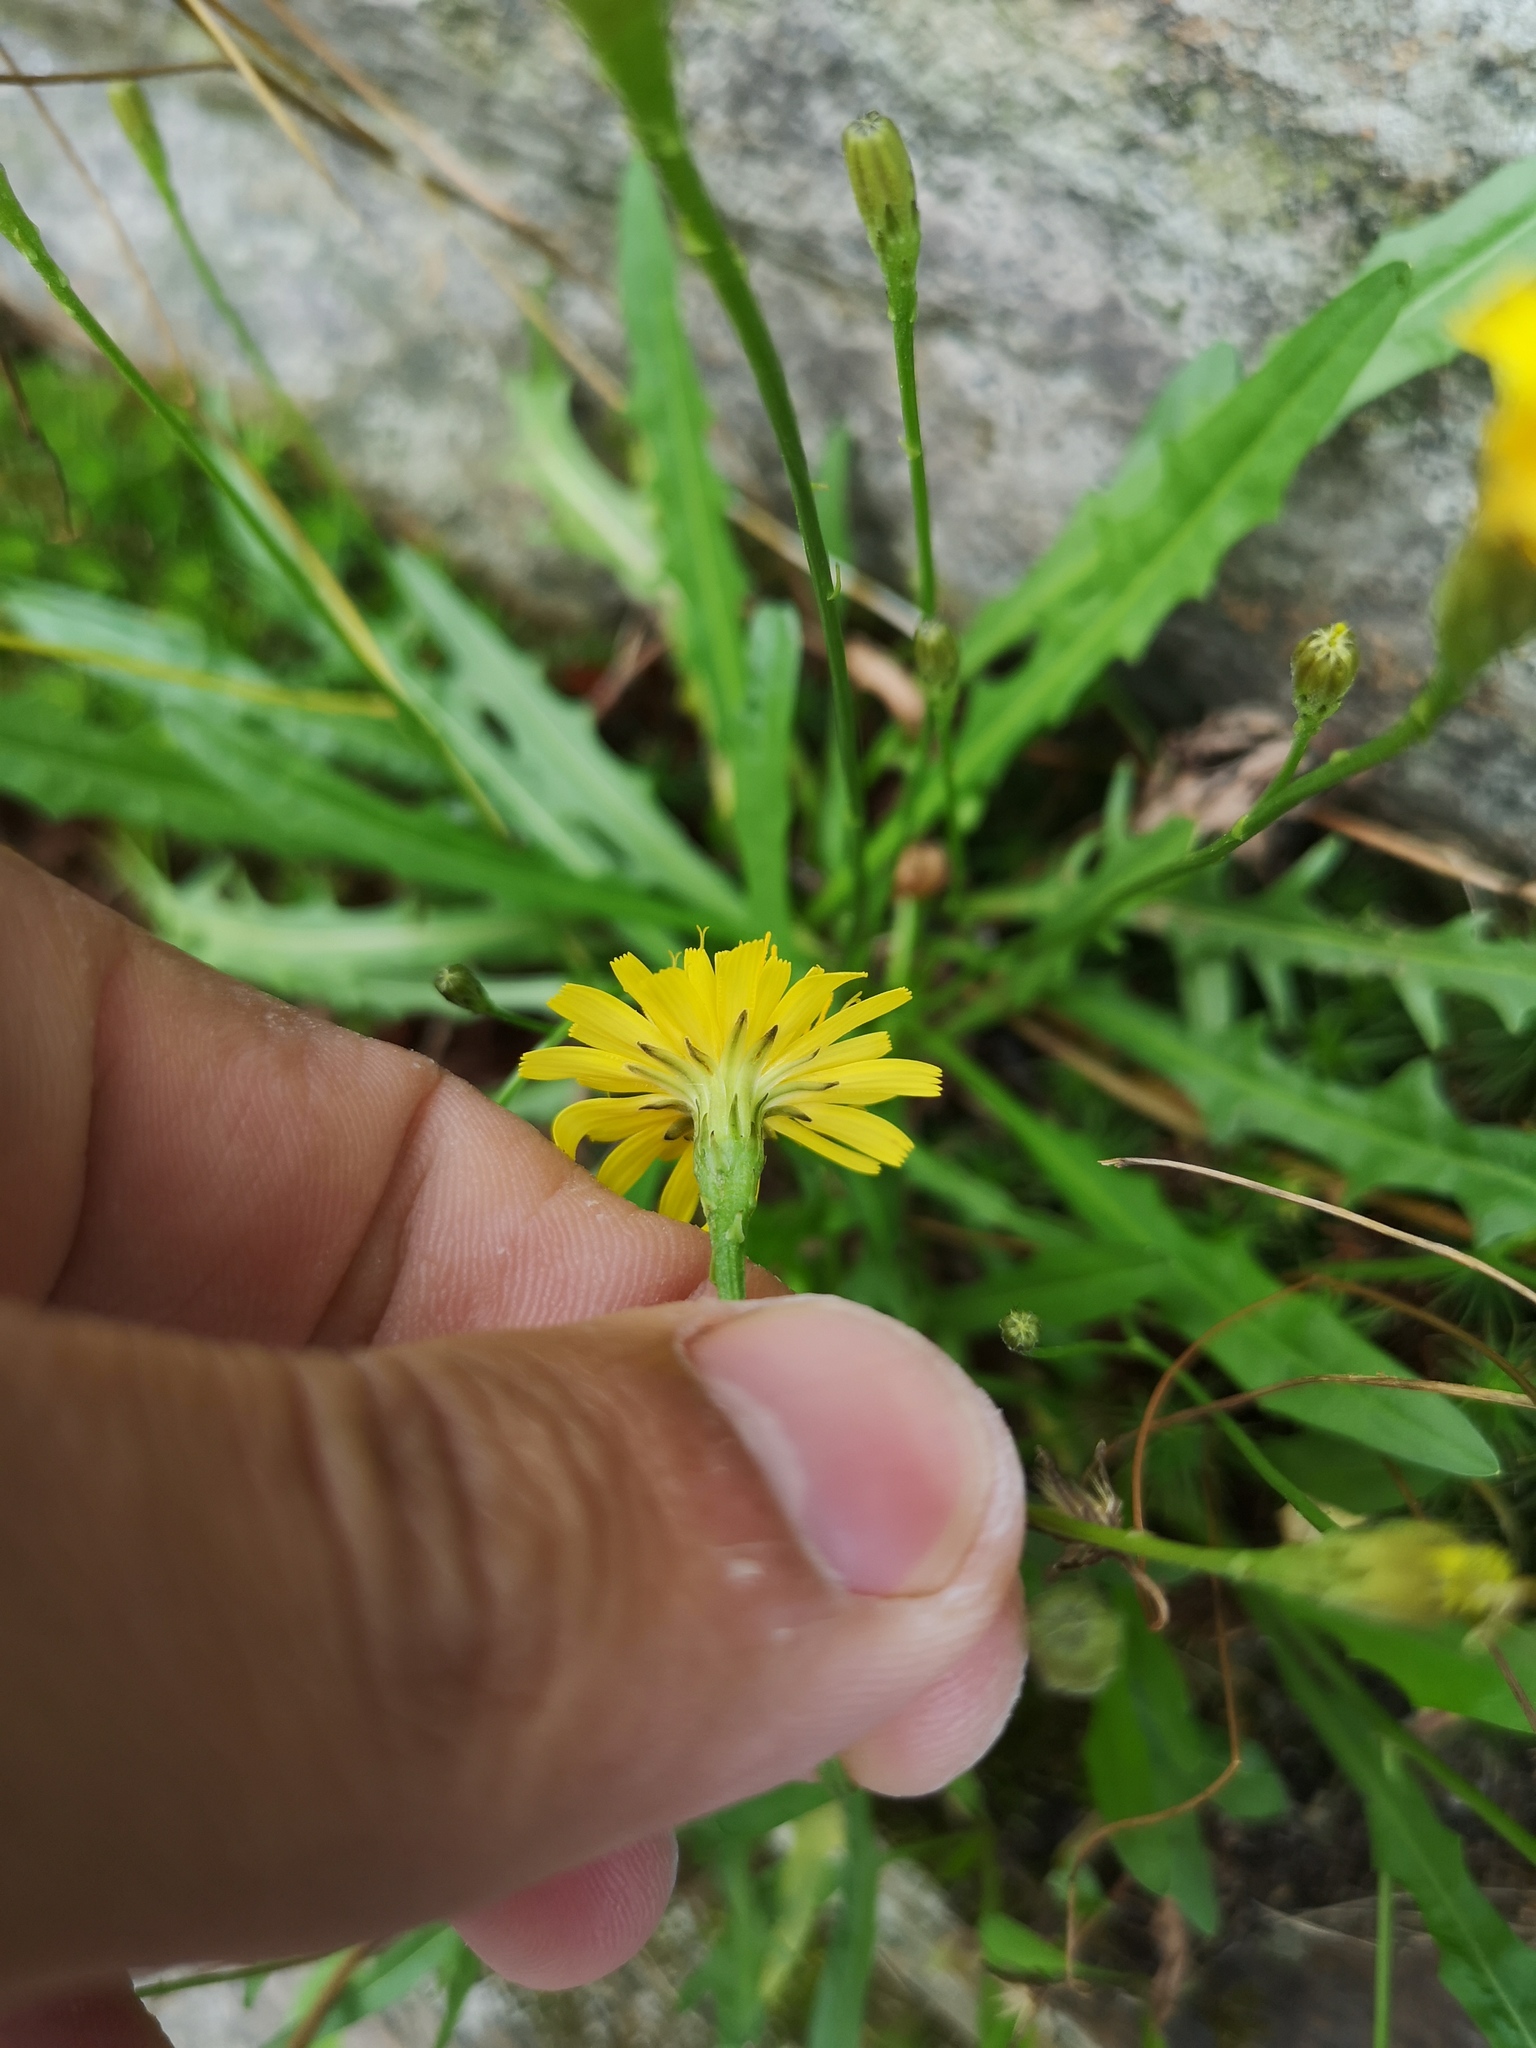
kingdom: Plantae
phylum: Tracheophyta
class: Magnoliopsida
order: Asterales
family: Asteraceae
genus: Scorzoneroides
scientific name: Scorzoneroides autumnalis
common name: Autumn hawkbit
